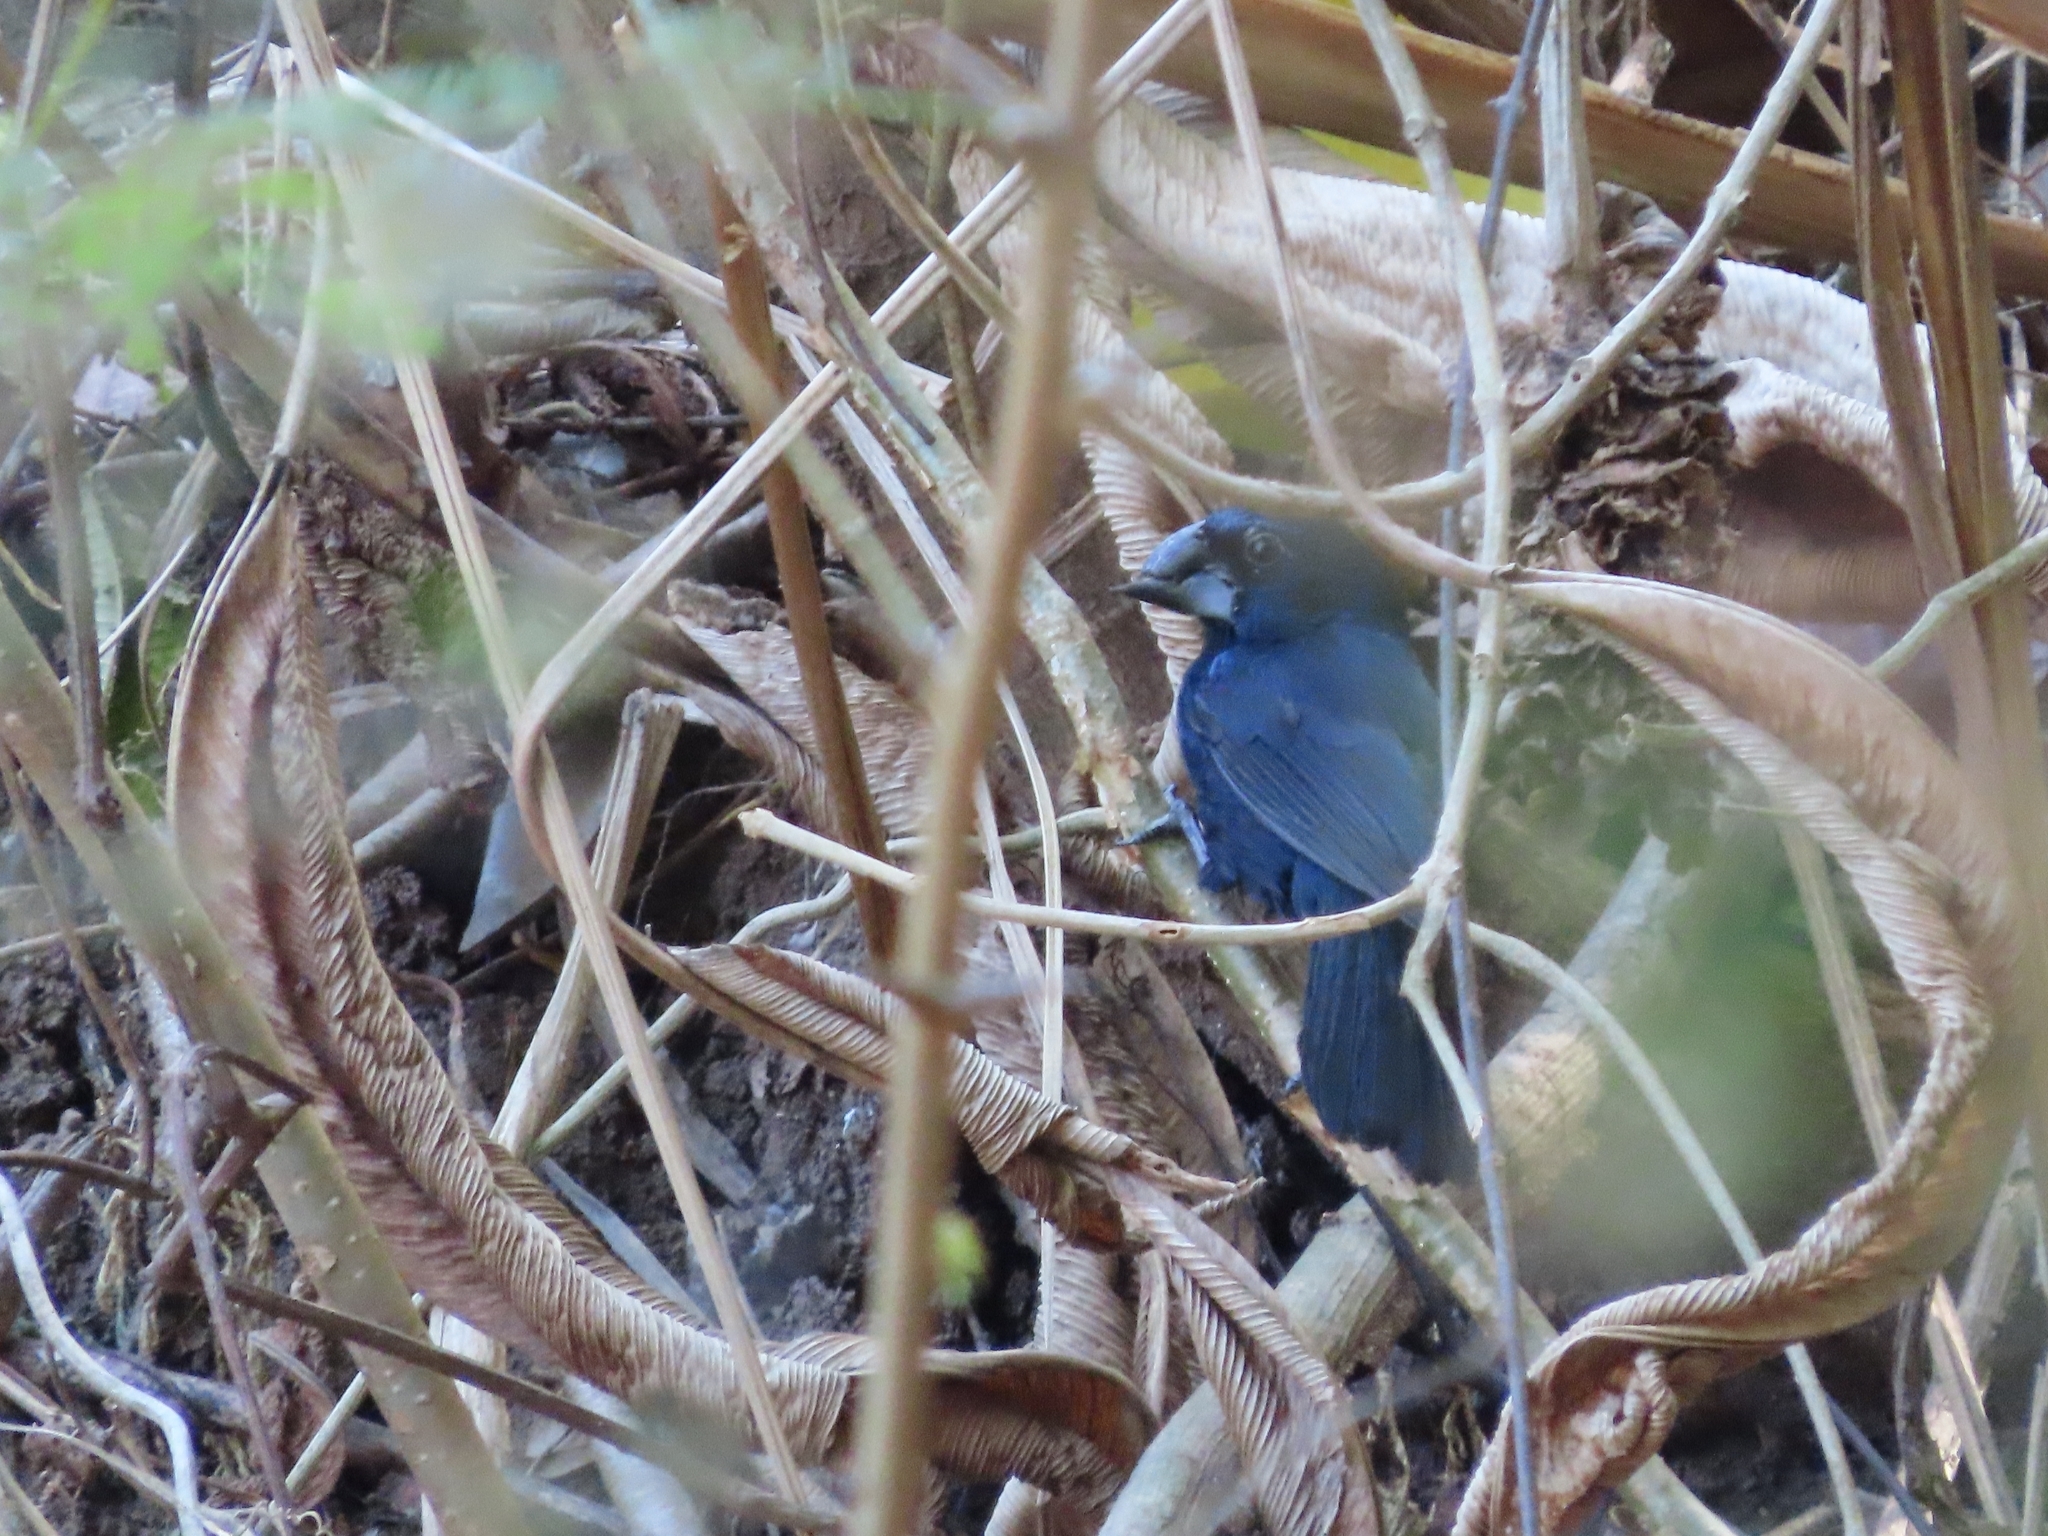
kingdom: Animalia
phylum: Chordata
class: Aves
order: Passeriformes
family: Cardinalidae
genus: Cyanocompsa
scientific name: Cyanocompsa cyanoides
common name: Blue-black grosbeak
